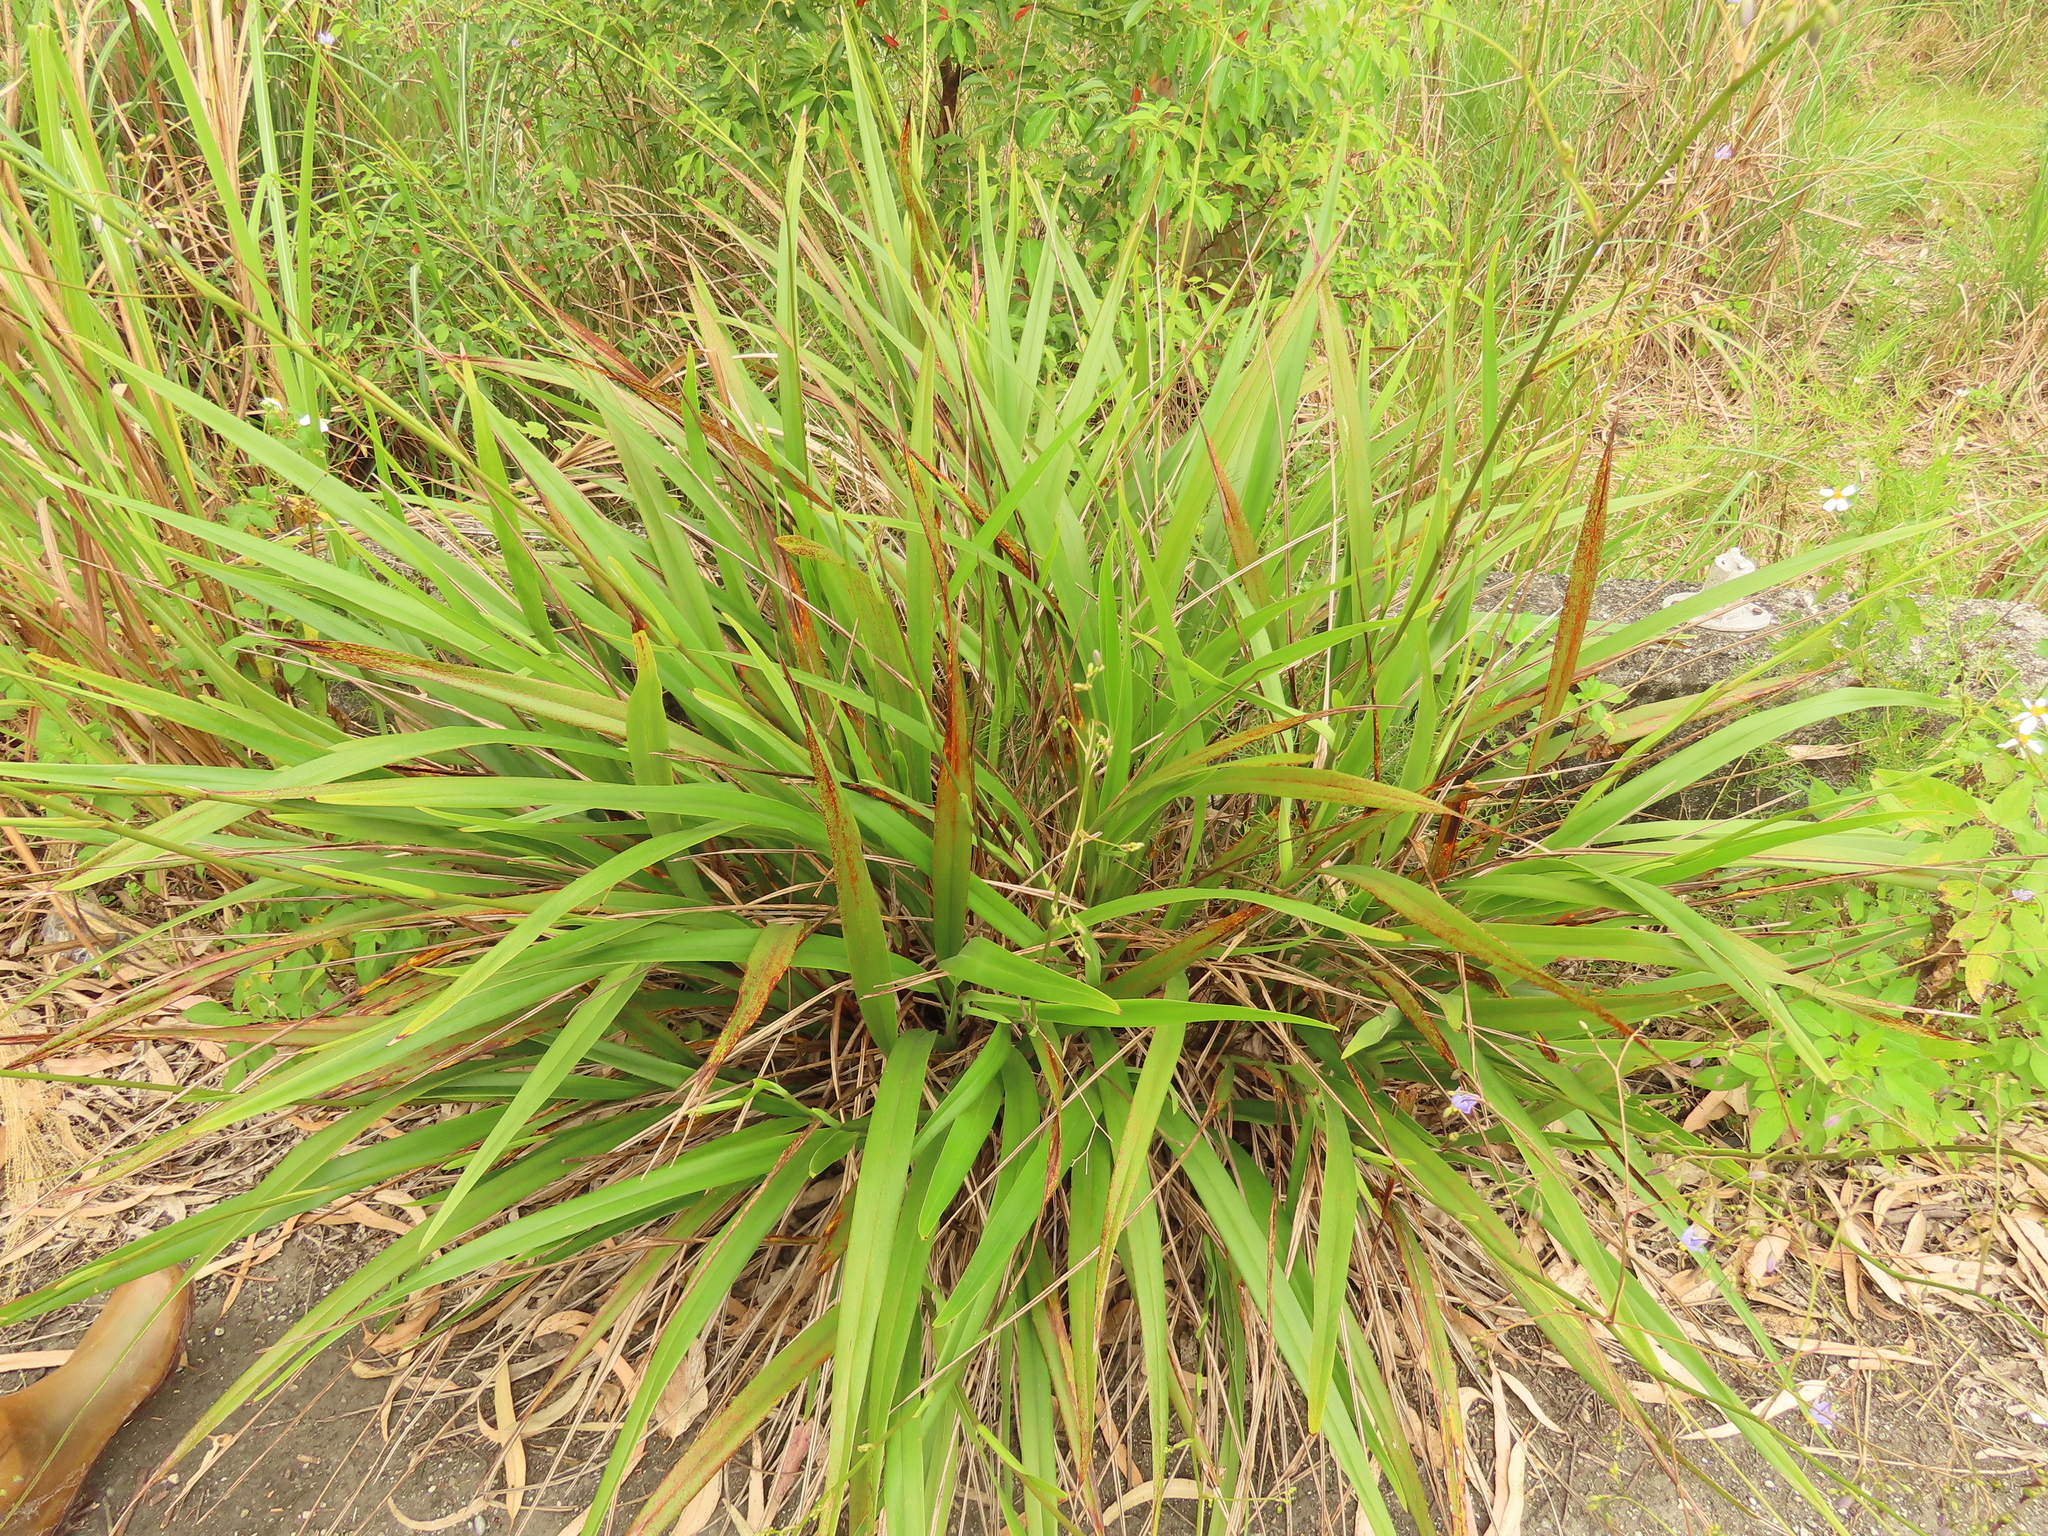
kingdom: Plantae
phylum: Tracheophyta
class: Liliopsida
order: Asparagales
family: Asphodelaceae
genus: Dianella
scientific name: Dianella ensifolia
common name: New zealand lilyplant
